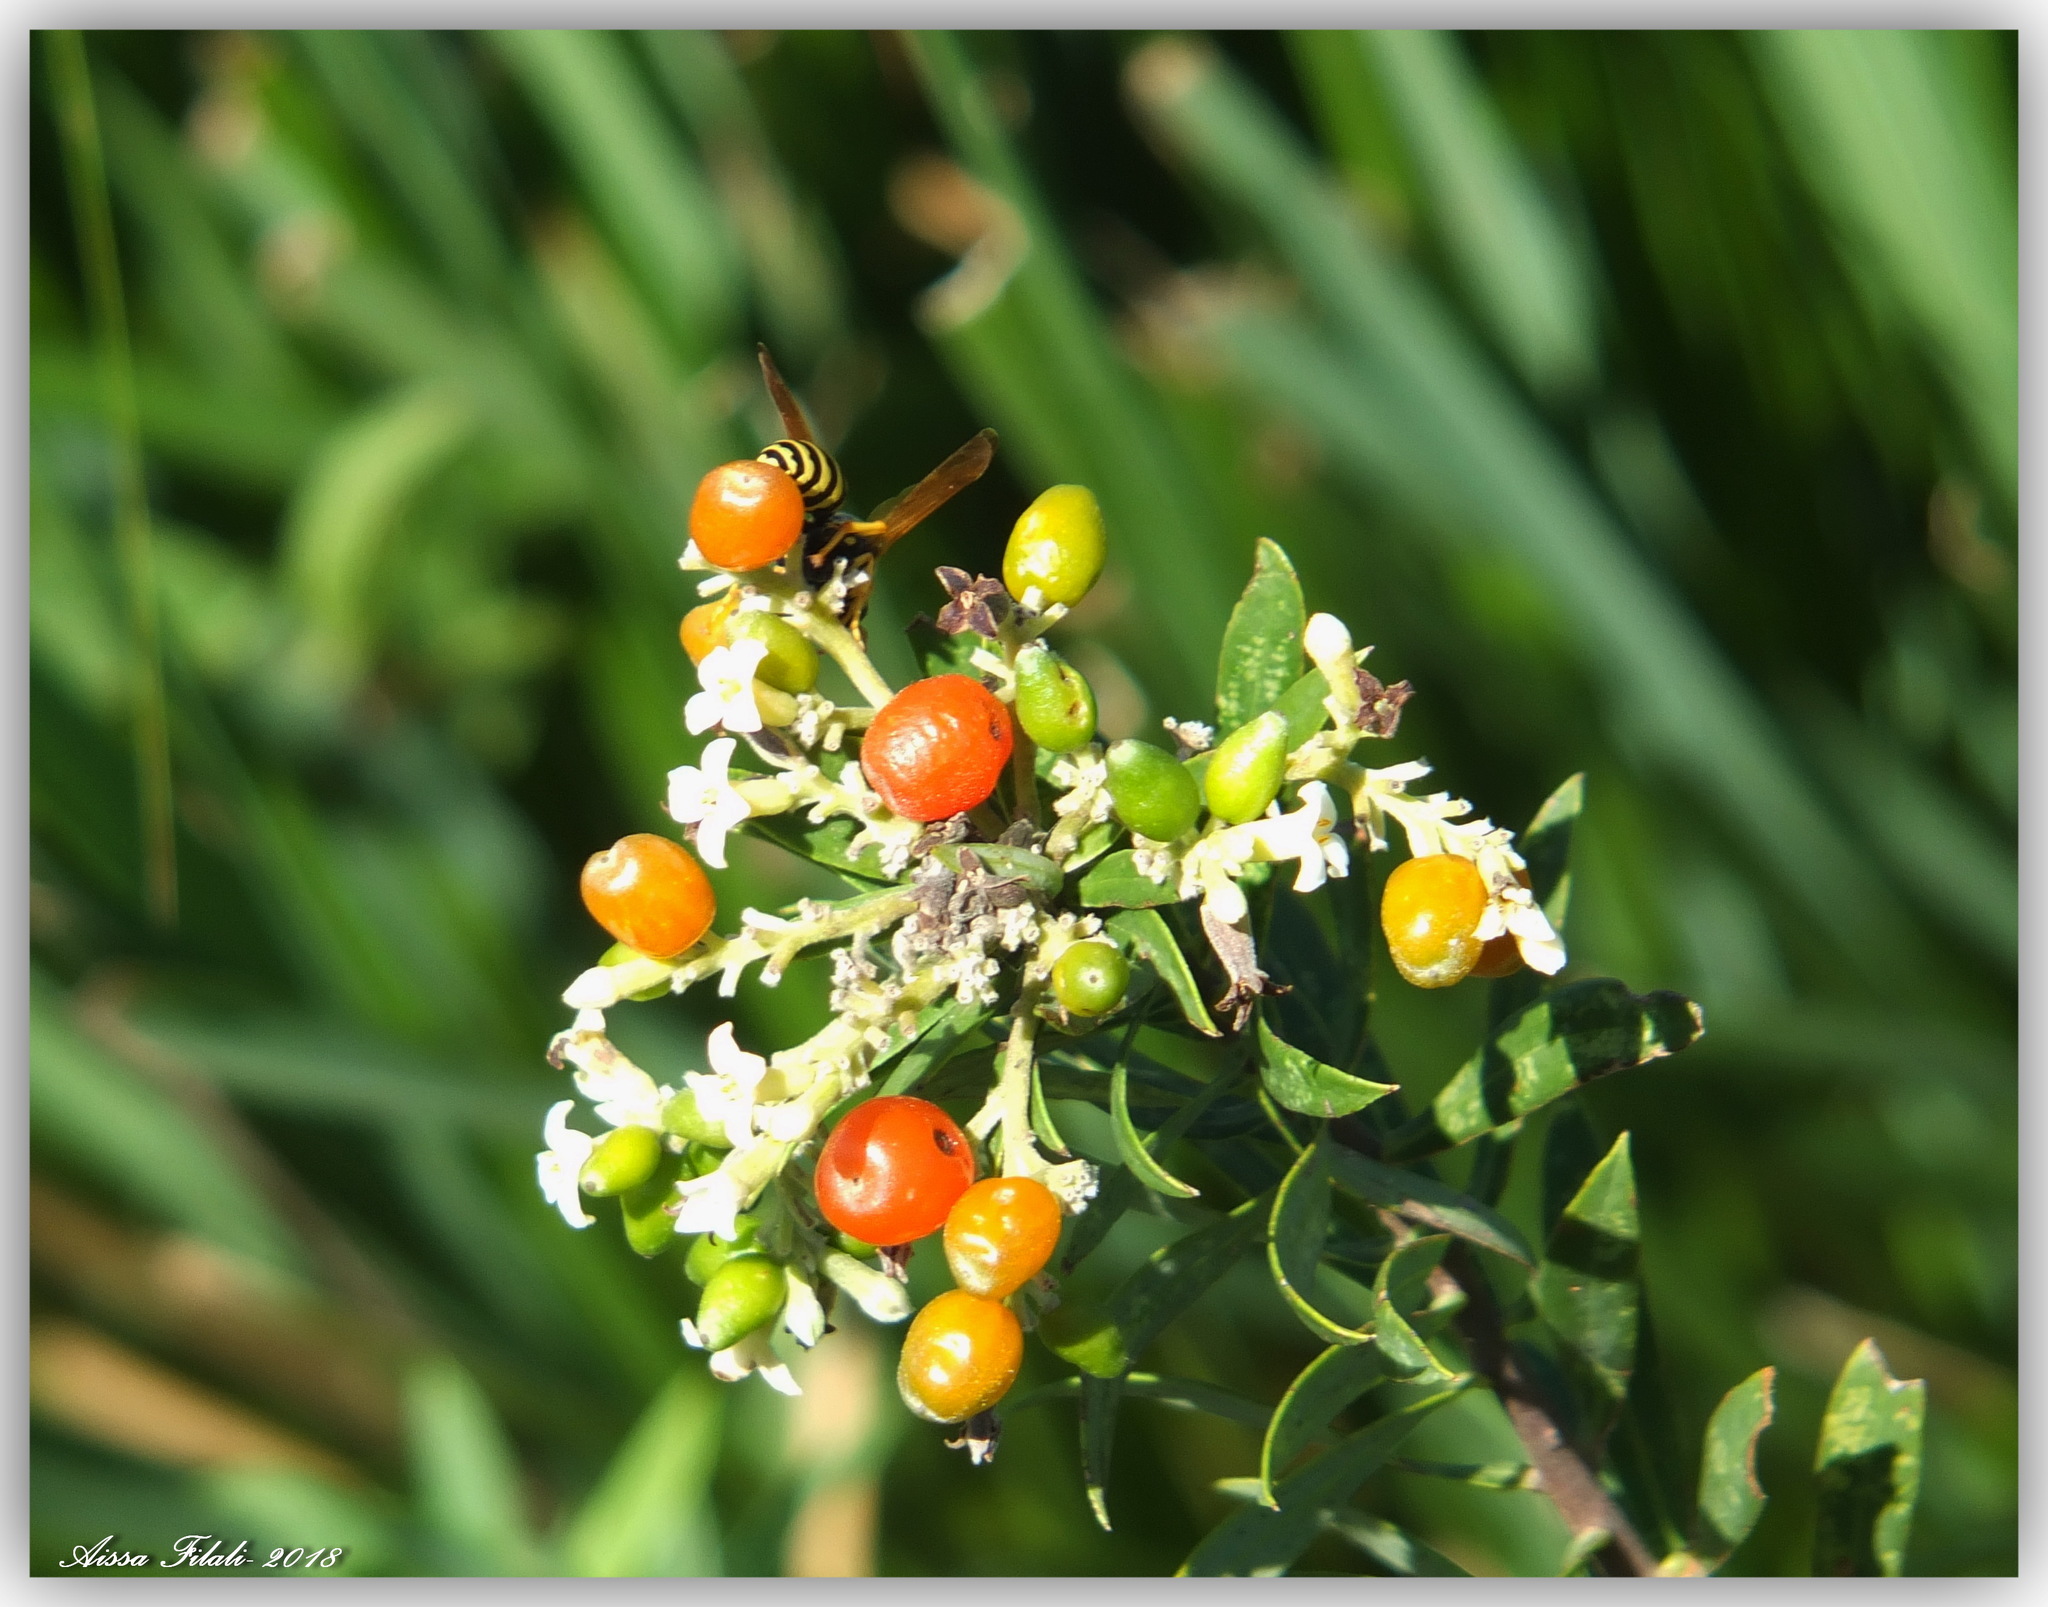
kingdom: Plantae
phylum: Tracheophyta
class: Magnoliopsida
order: Malvales
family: Thymelaeaceae
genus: Daphne
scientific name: Daphne gnidium
